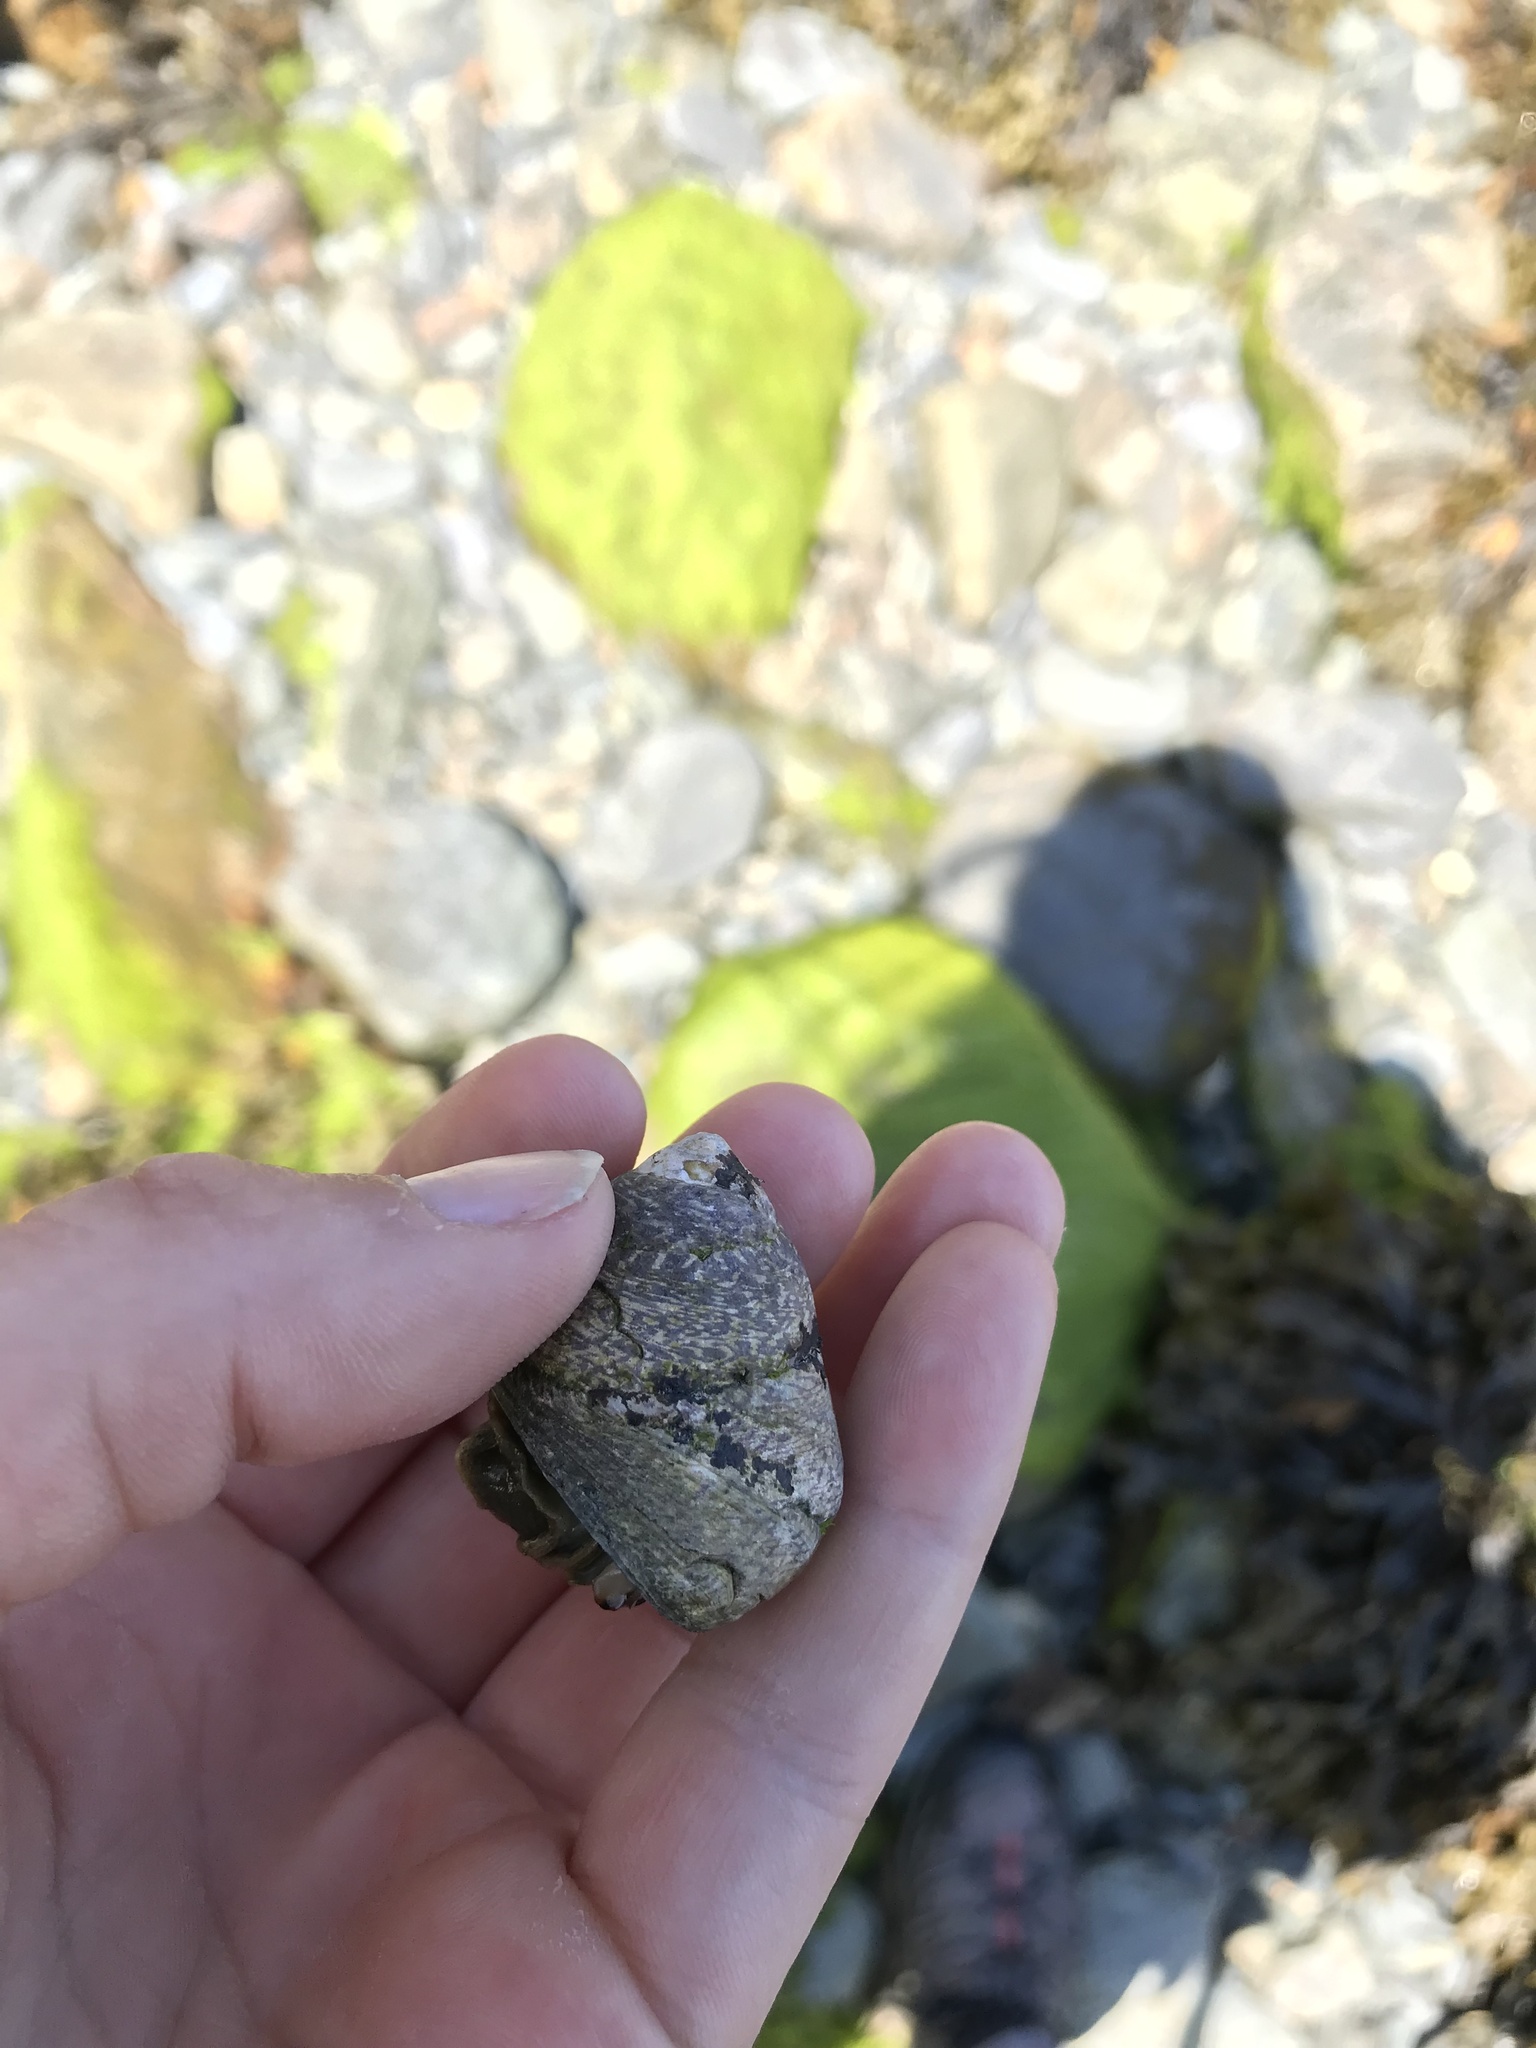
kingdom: Animalia
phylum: Mollusca
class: Gastropoda
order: Trochida
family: Trochidae
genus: Phorcus
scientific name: Phorcus lineatus
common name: Toothed top shell
